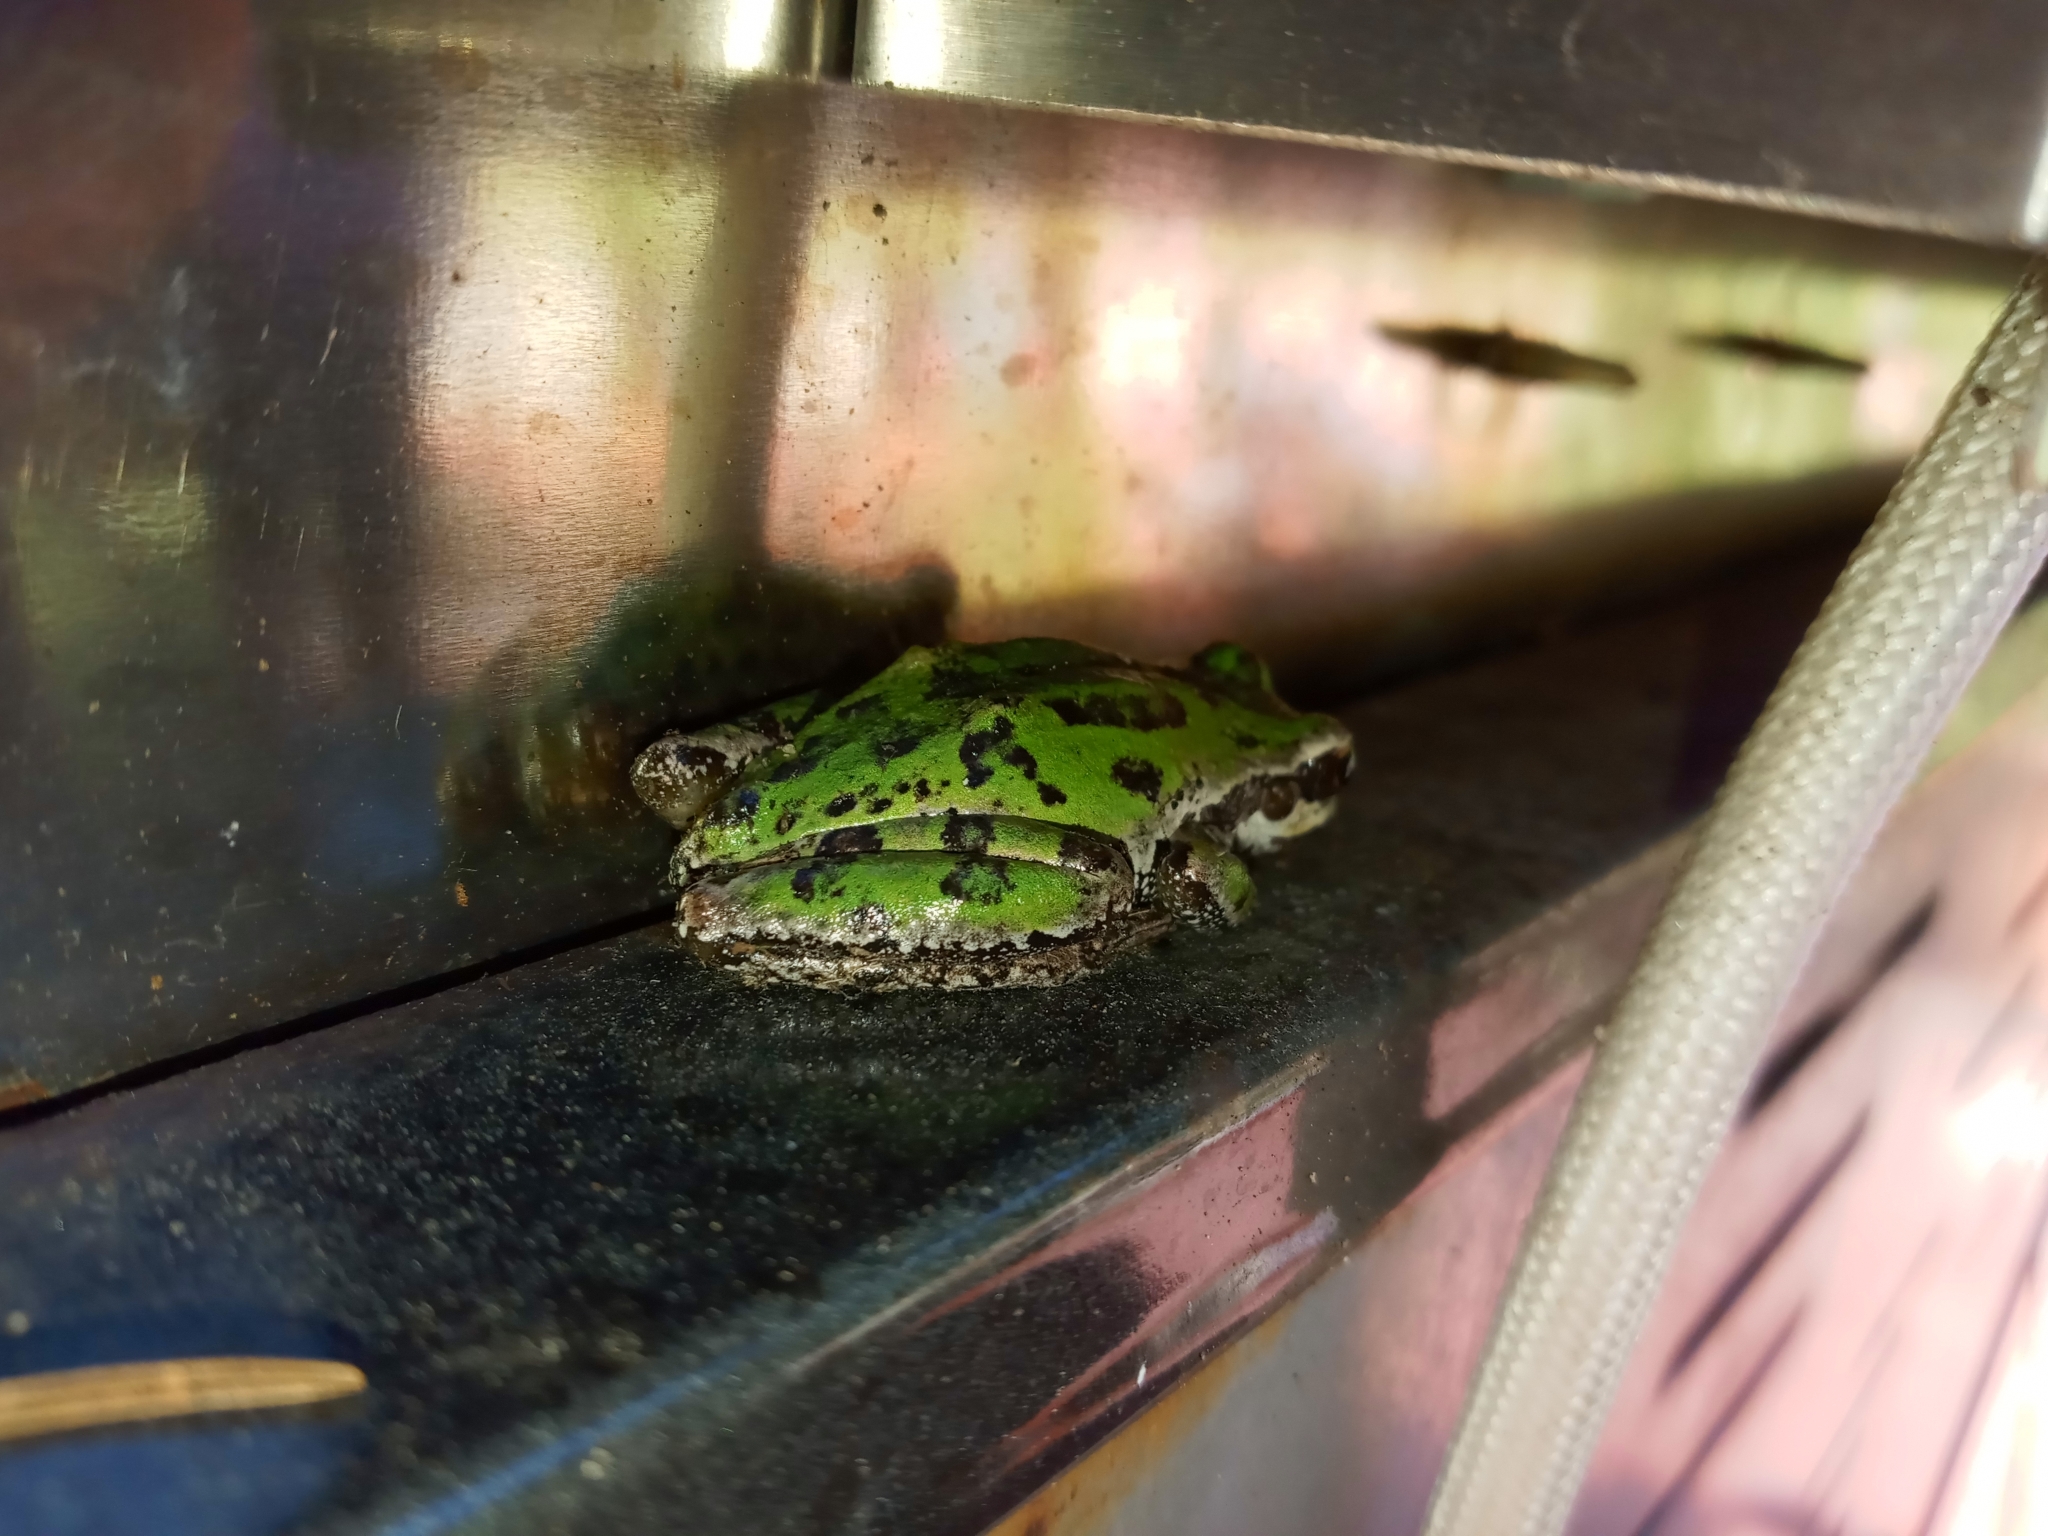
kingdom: Animalia
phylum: Chordata
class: Amphibia
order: Anura
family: Hylidae
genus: Pseudacris
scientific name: Pseudacris regilla
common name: Pacific chorus frog
